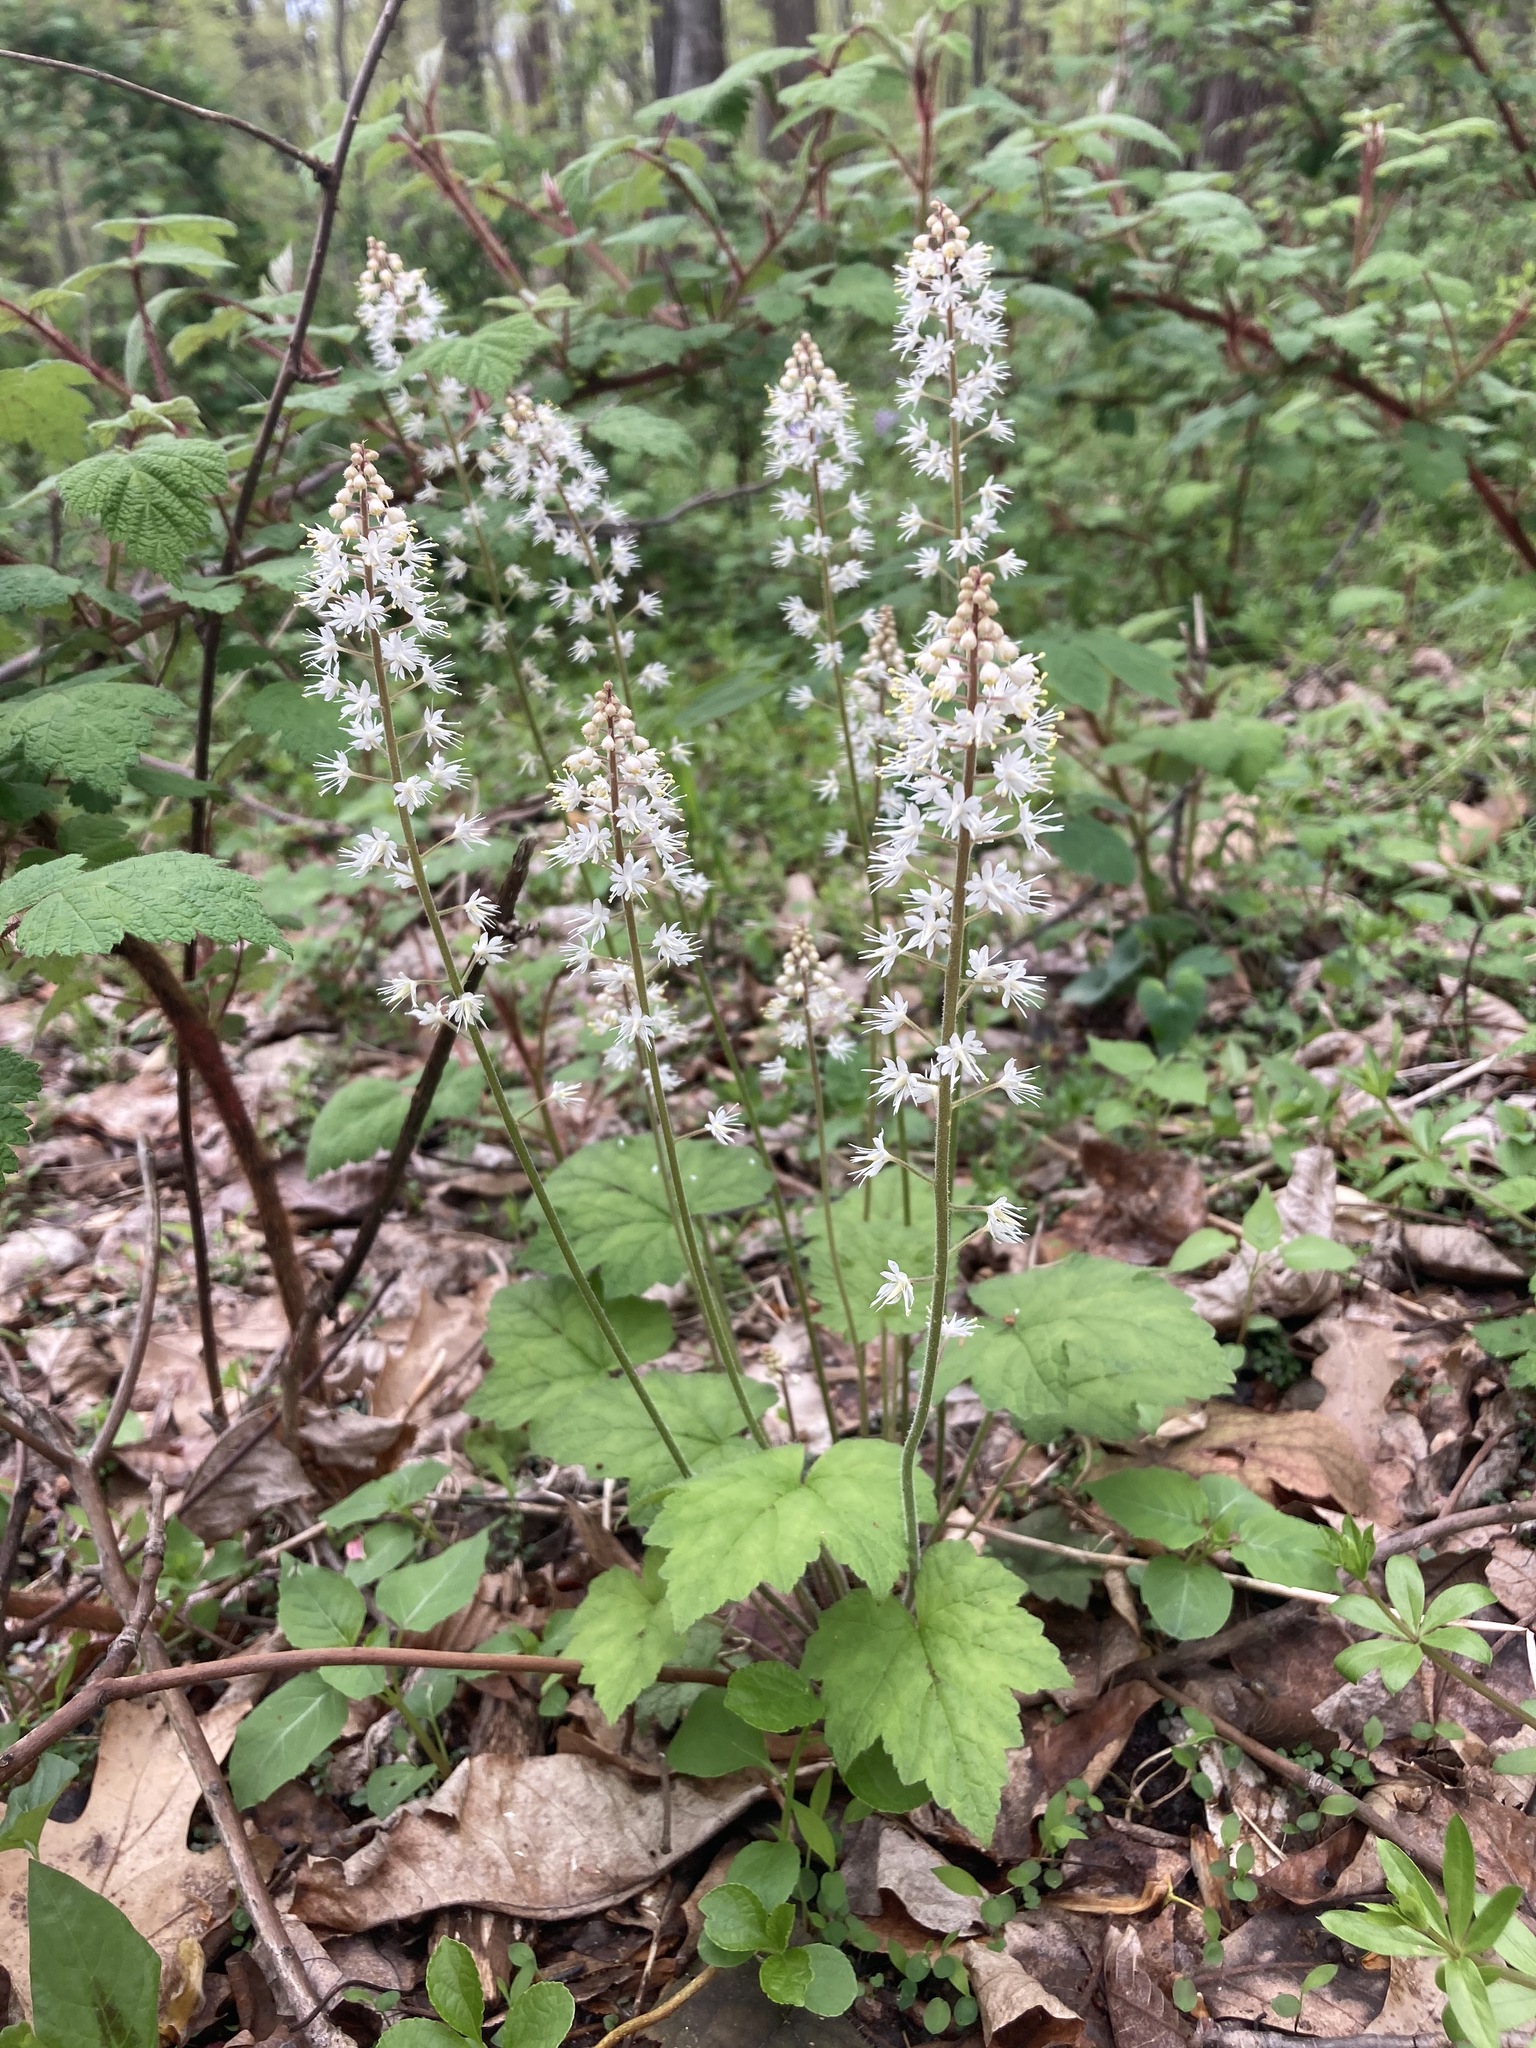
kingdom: Plantae
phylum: Tracheophyta
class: Magnoliopsida
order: Saxifragales
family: Saxifragaceae
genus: Tiarella
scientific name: Tiarella stolonifera
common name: Stoloniferous foamflower
